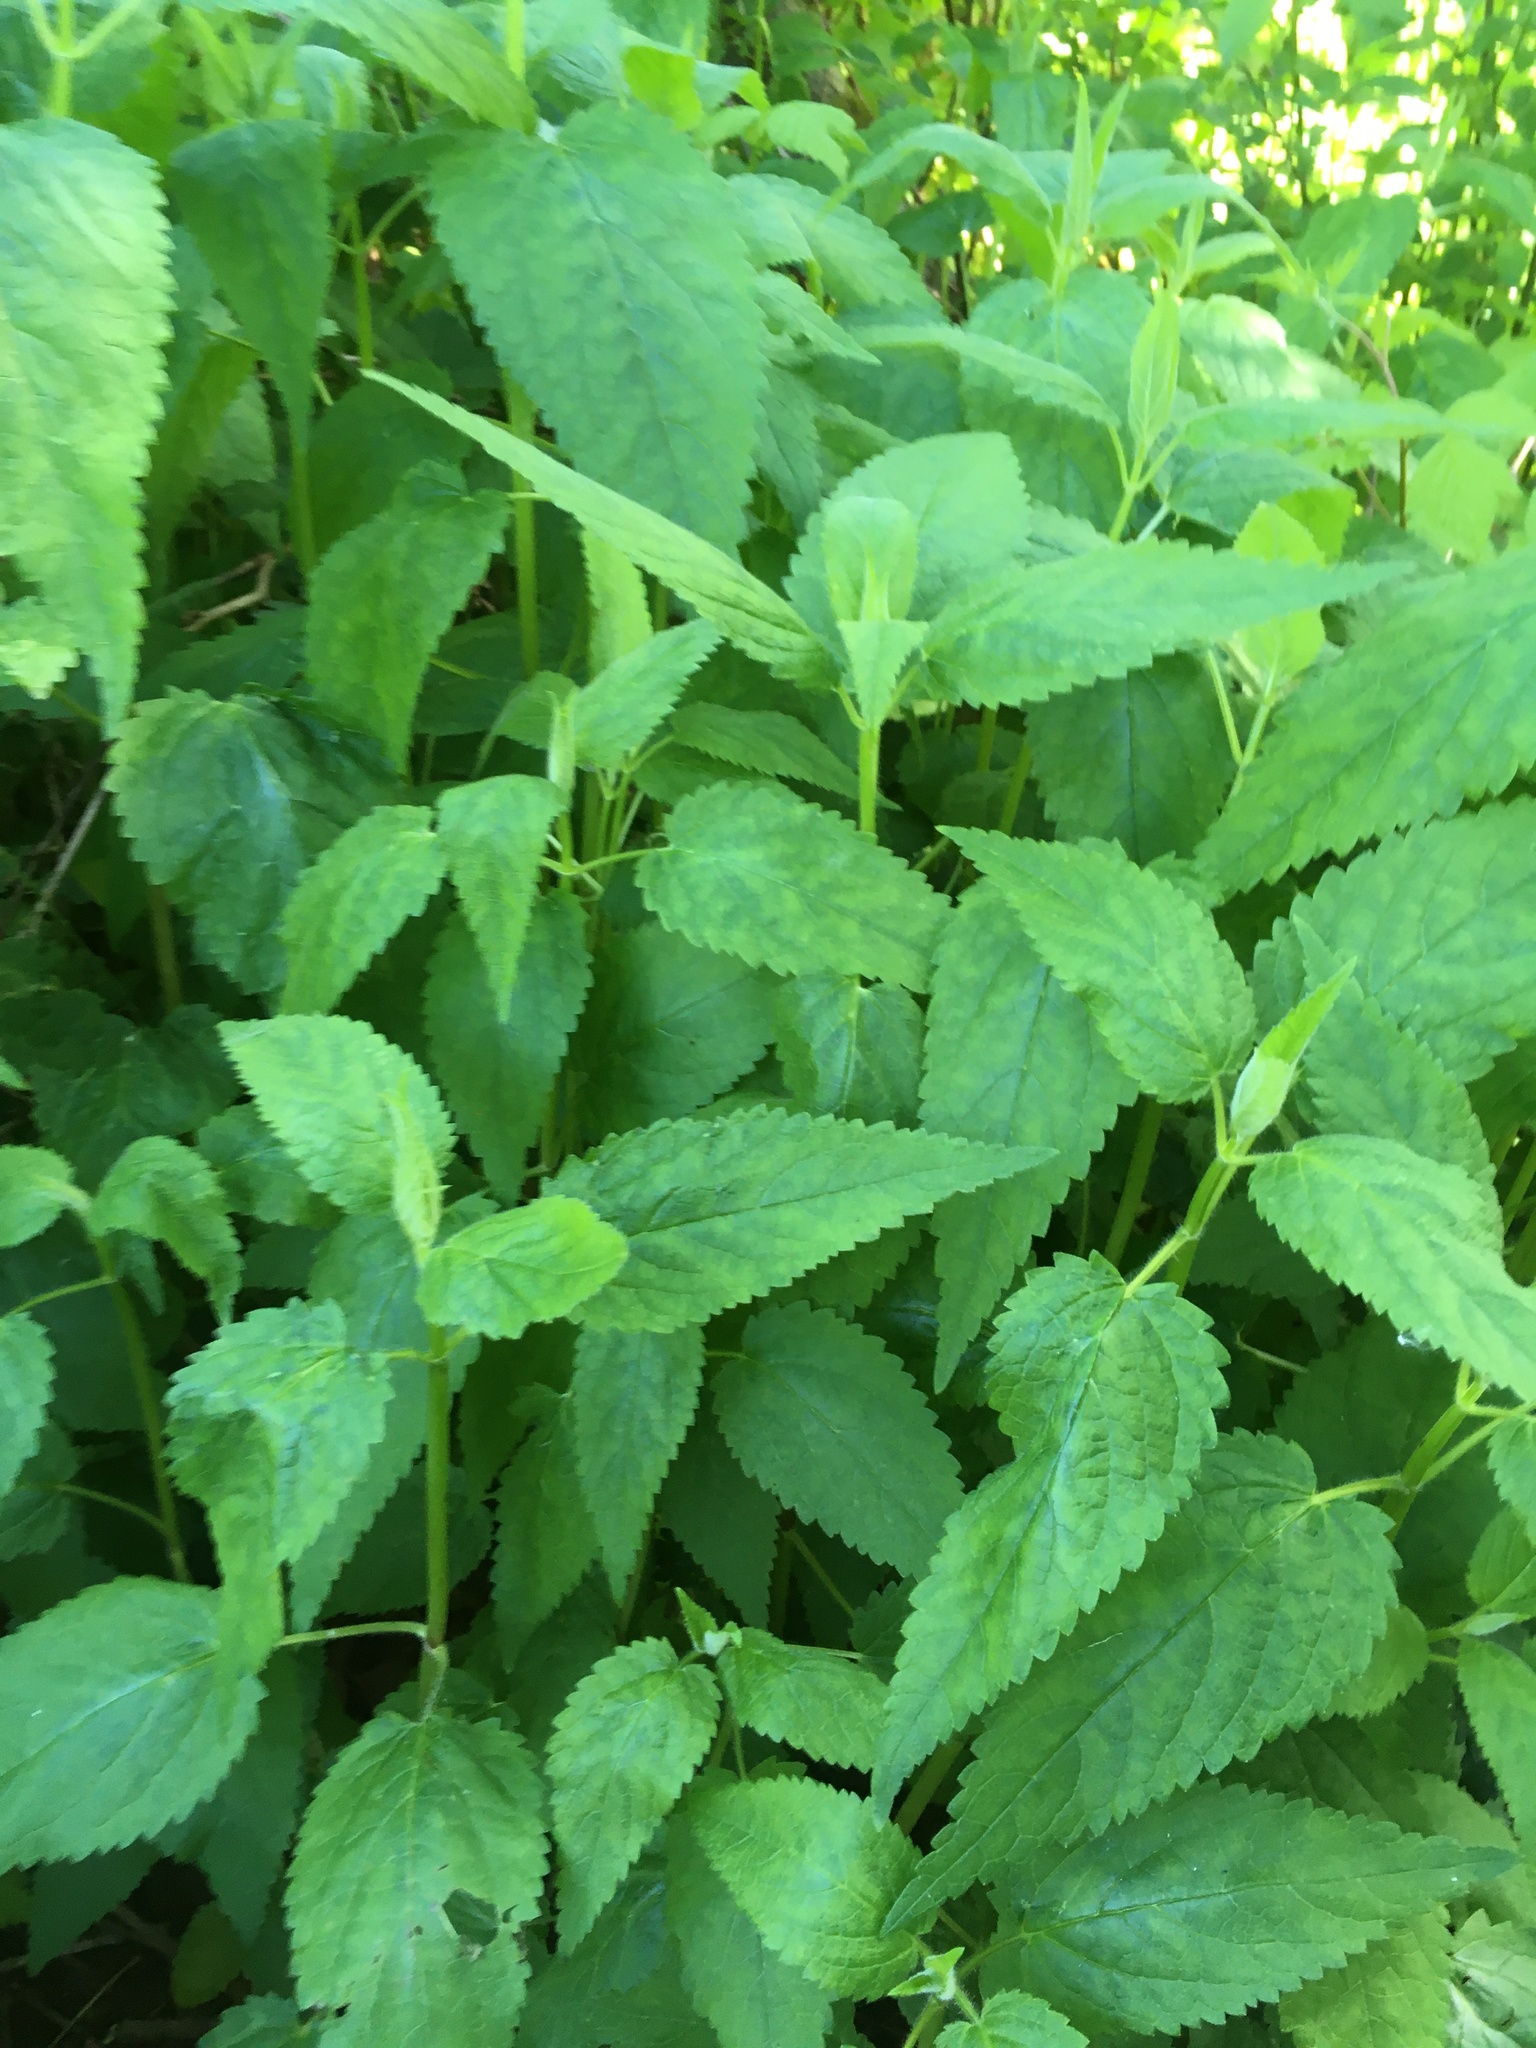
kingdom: Plantae
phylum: Tracheophyta
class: Magnoliopsida
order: Lamiales
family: Lamiaceae
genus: Stachys
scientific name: Stachys chamissonis
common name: Coastal hedge-nettle
